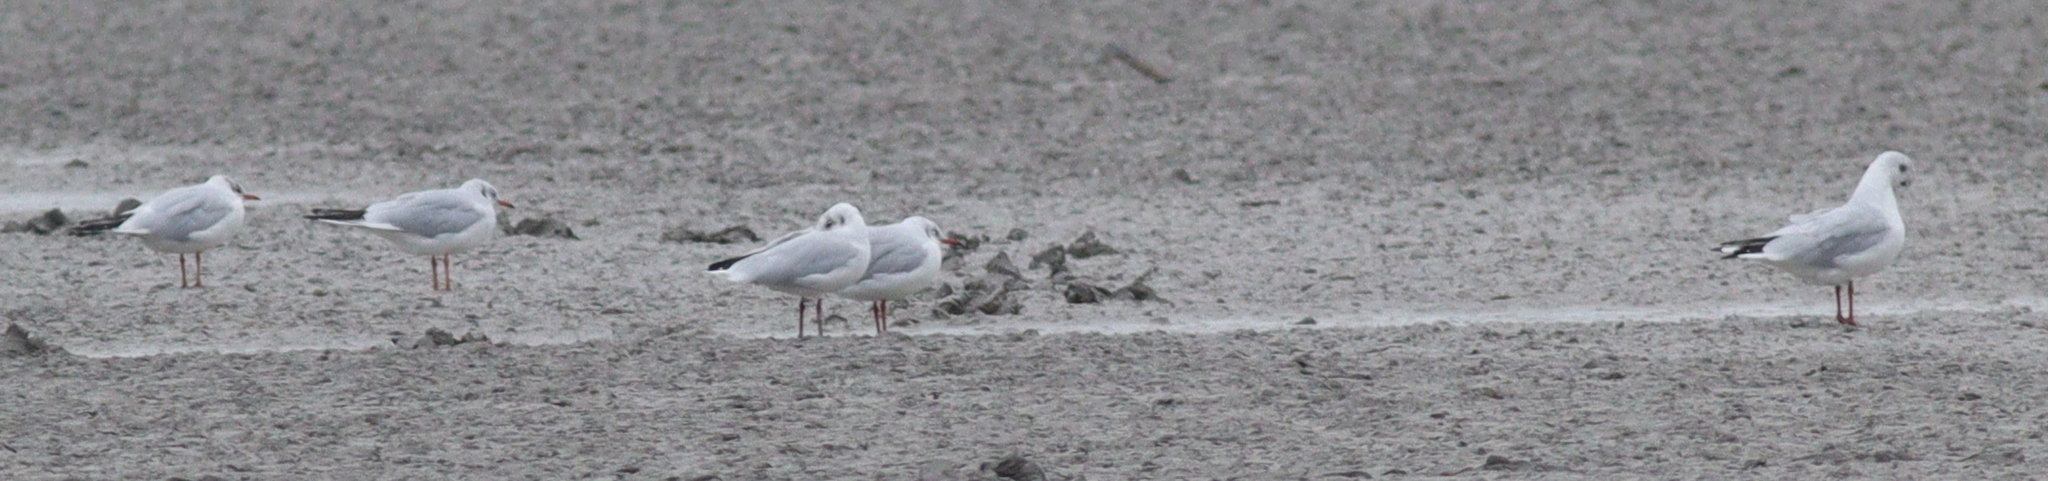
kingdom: Animalia
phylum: Chordata
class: Aves
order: Charadriiformes
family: Laridae
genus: Chroicocephalus
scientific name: Chroicocephalus ridibundus
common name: Black-headed gull
